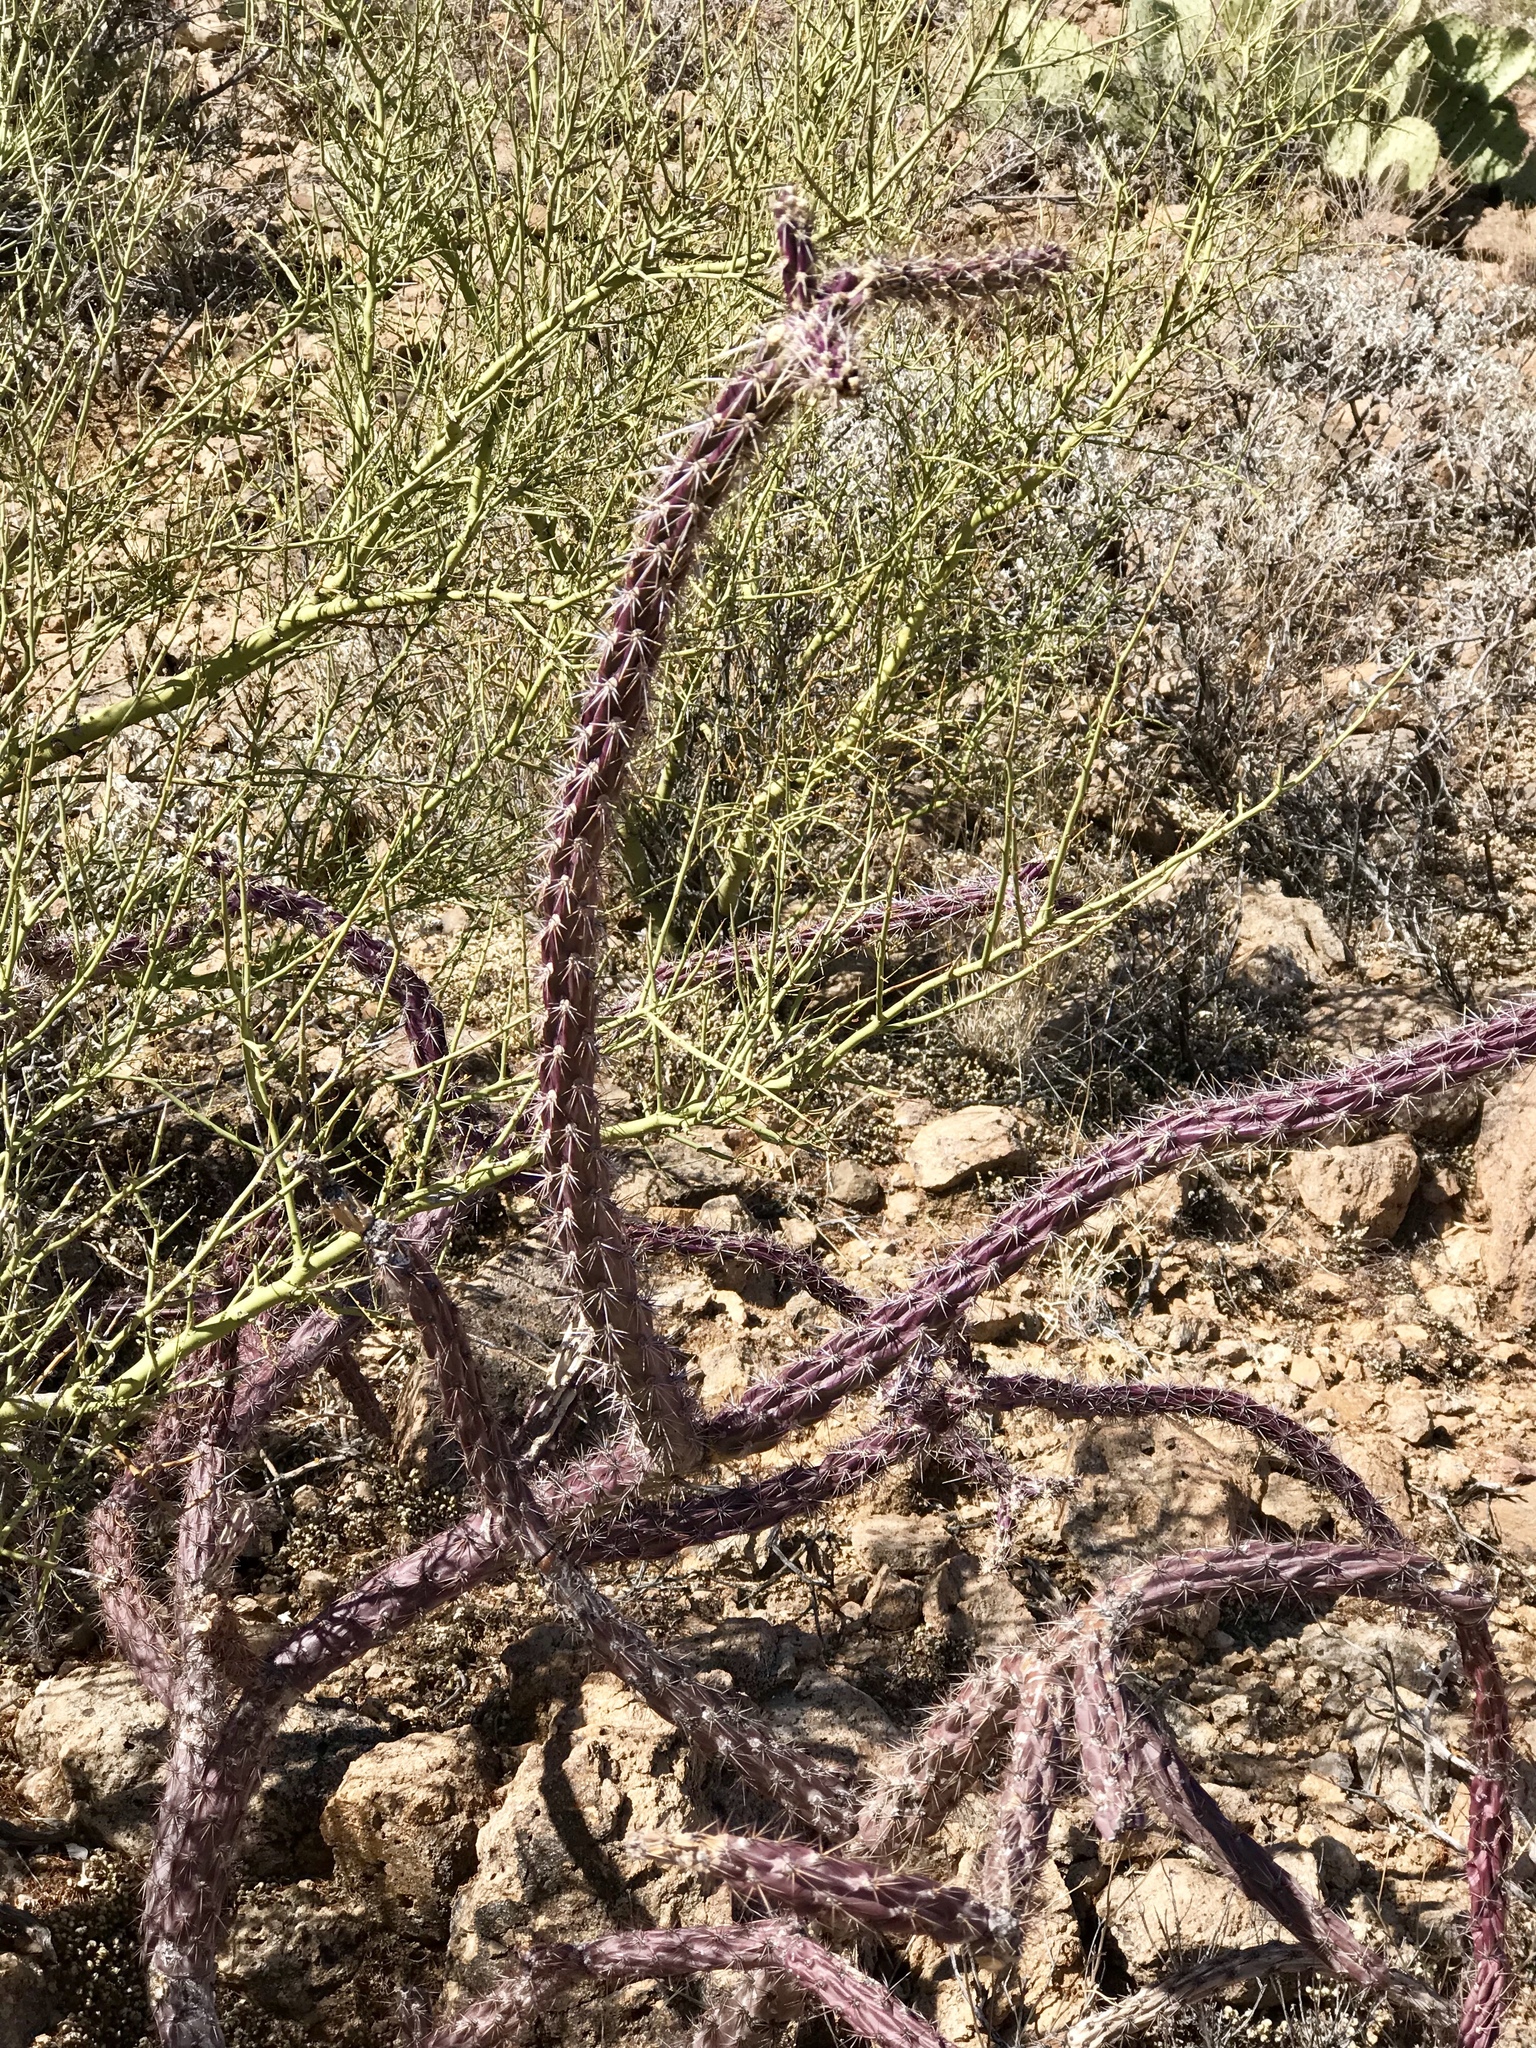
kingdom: Plantae
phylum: Tracheophyta
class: Magnoliopsida
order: Caryophyllales
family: Cactaceae
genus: Cylindropuntia
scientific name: Cylindropuntia thurberi
